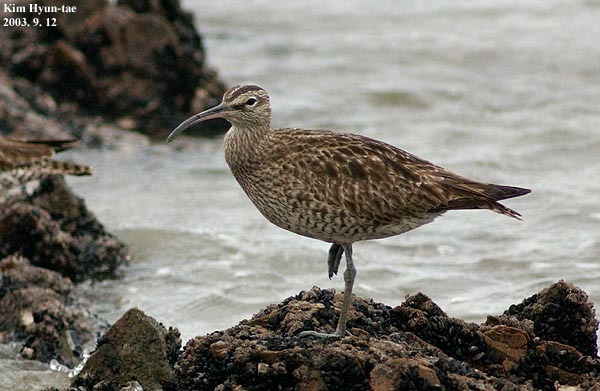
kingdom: Animalia
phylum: Chordata
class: Aves
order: Charadriiformes
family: Scolopacidae
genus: Numenius
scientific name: Numenius phaeopus
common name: Whimbrel
